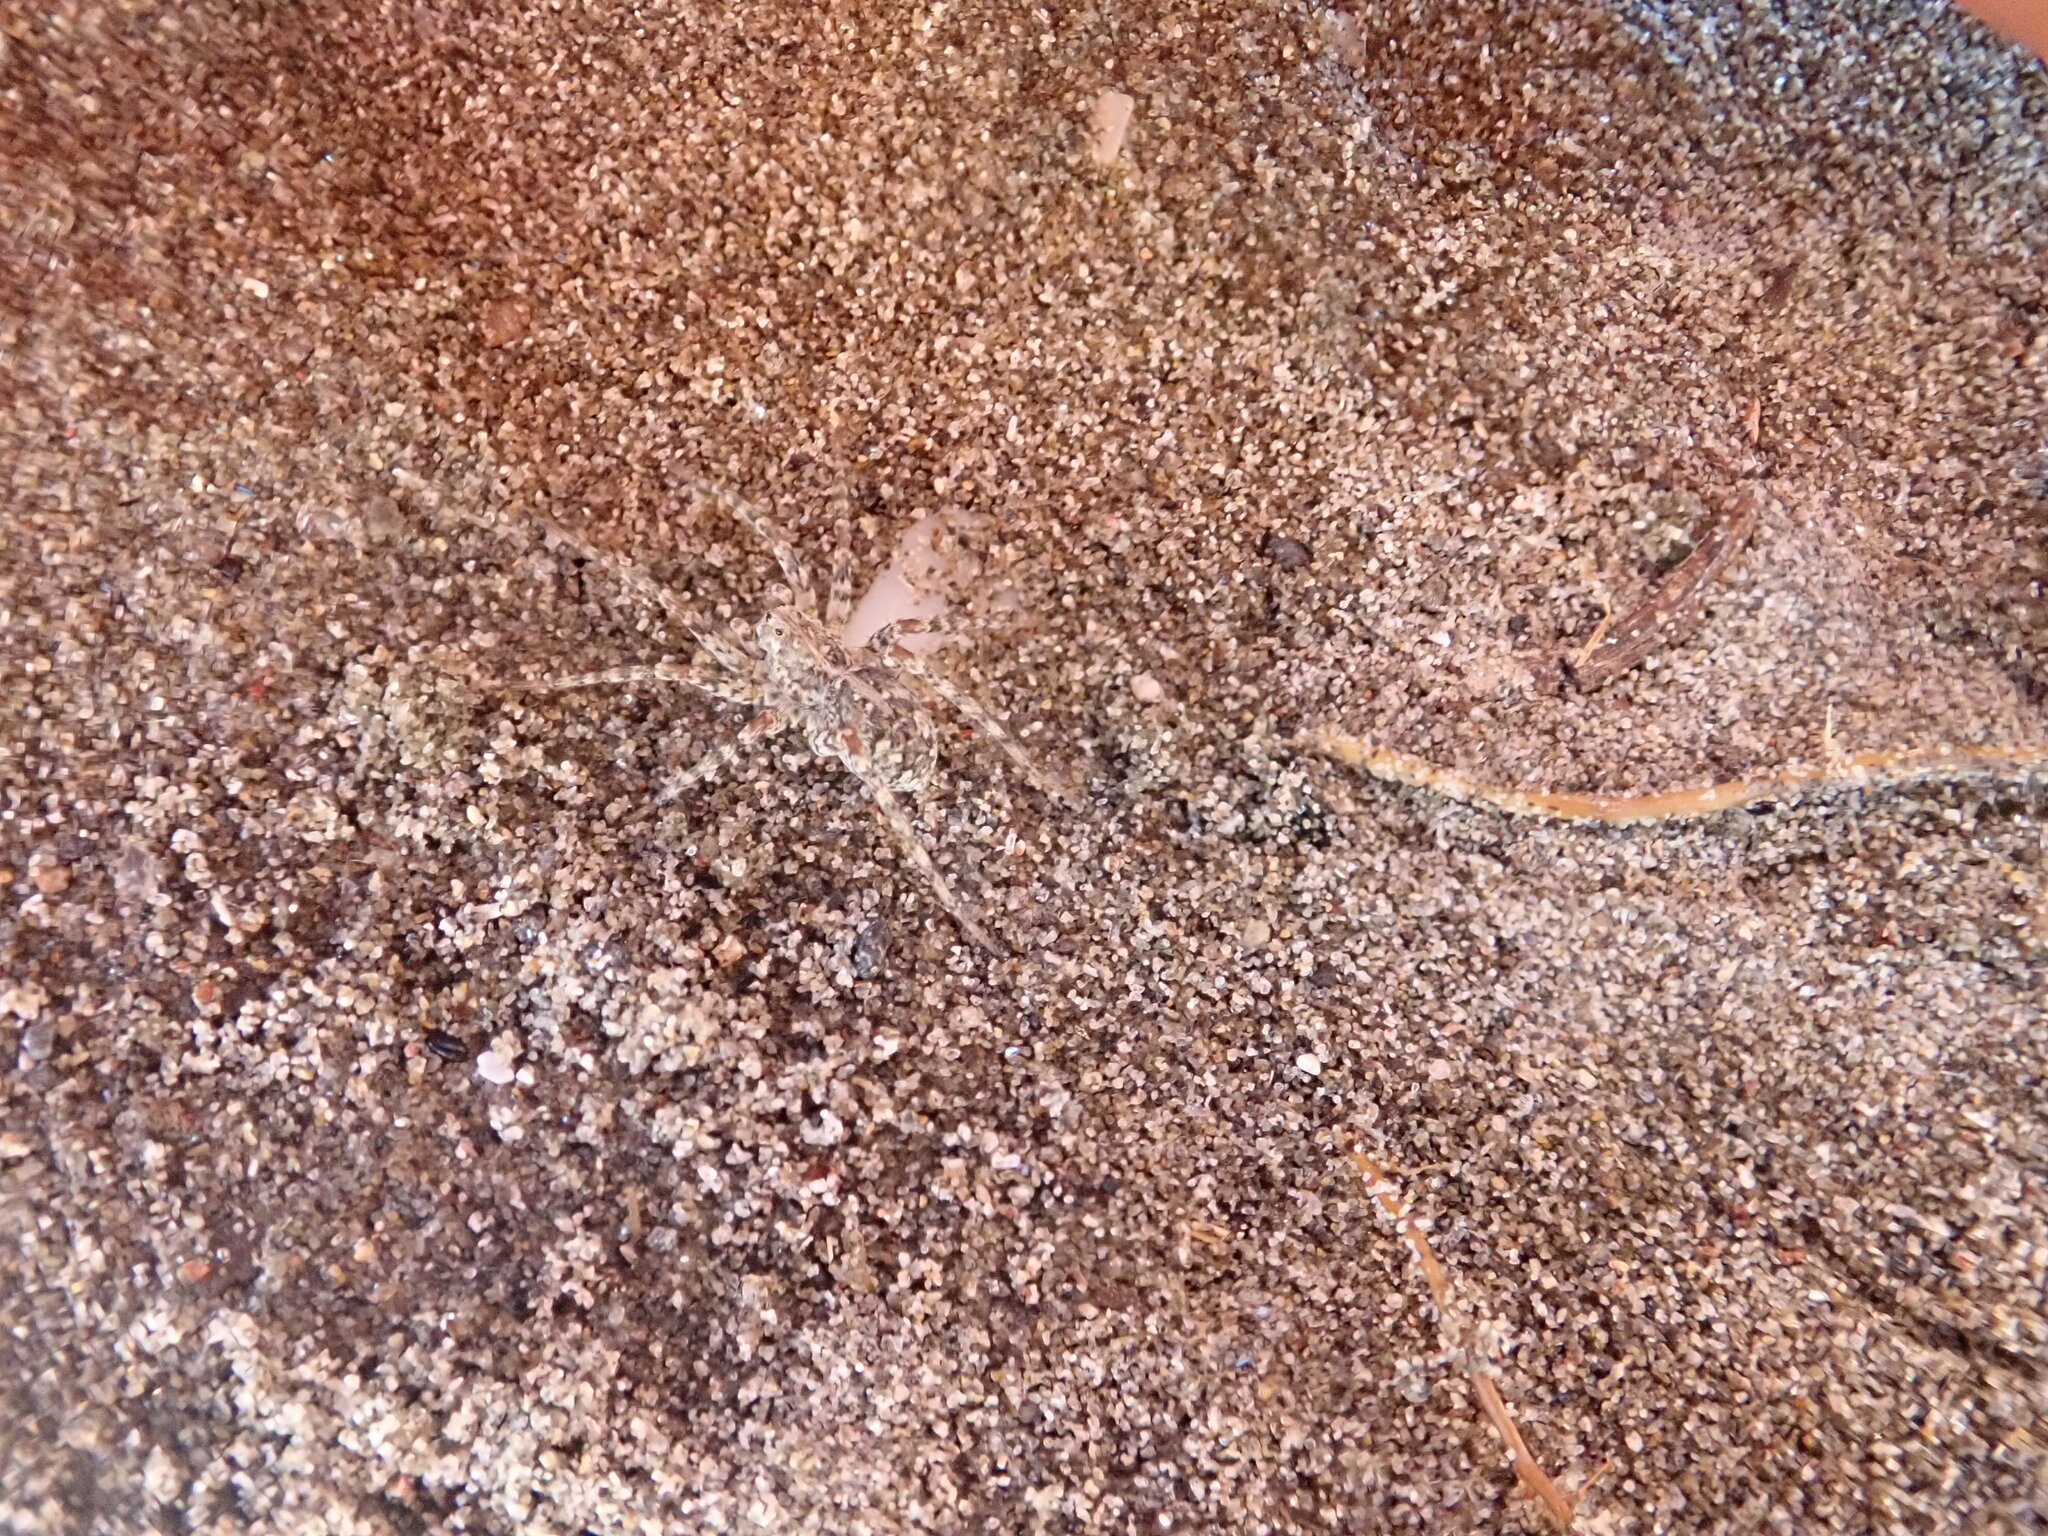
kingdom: Animalia
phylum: Arthropoda
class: Arachnida
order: Araneae
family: Lycosidae
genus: Anoteropsis
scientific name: Anoteropsis litoralis
